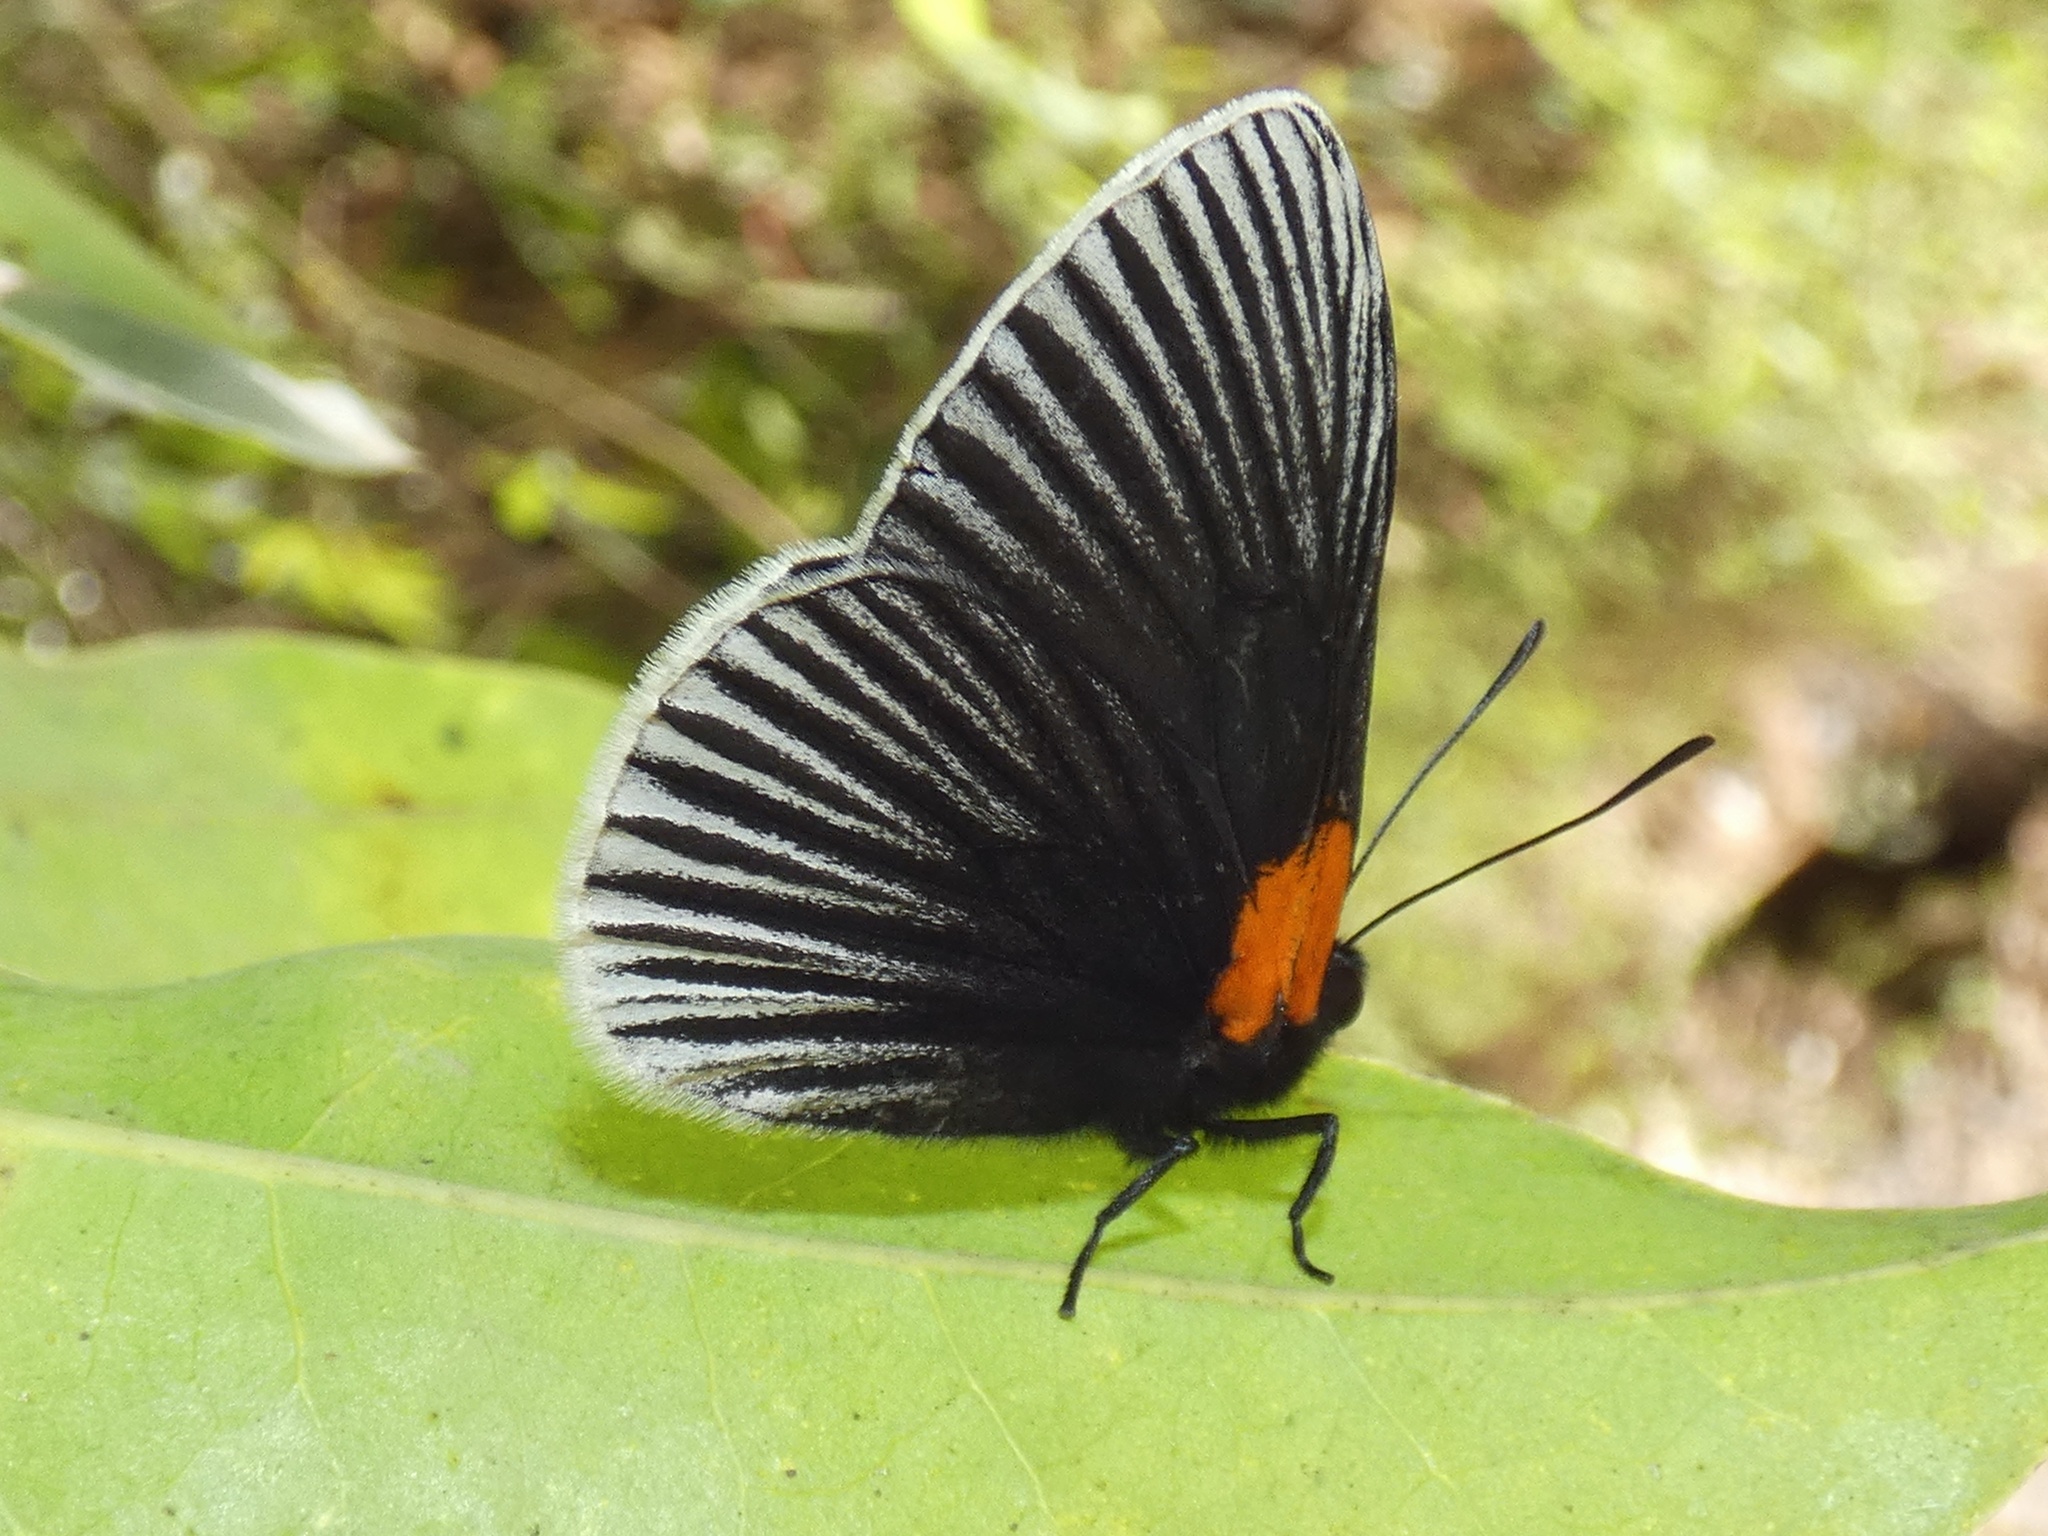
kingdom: Animalia
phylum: Arthropoda
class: Insecta
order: Lepidoptera
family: Riodinidae
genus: Hades
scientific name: Hades noctula
